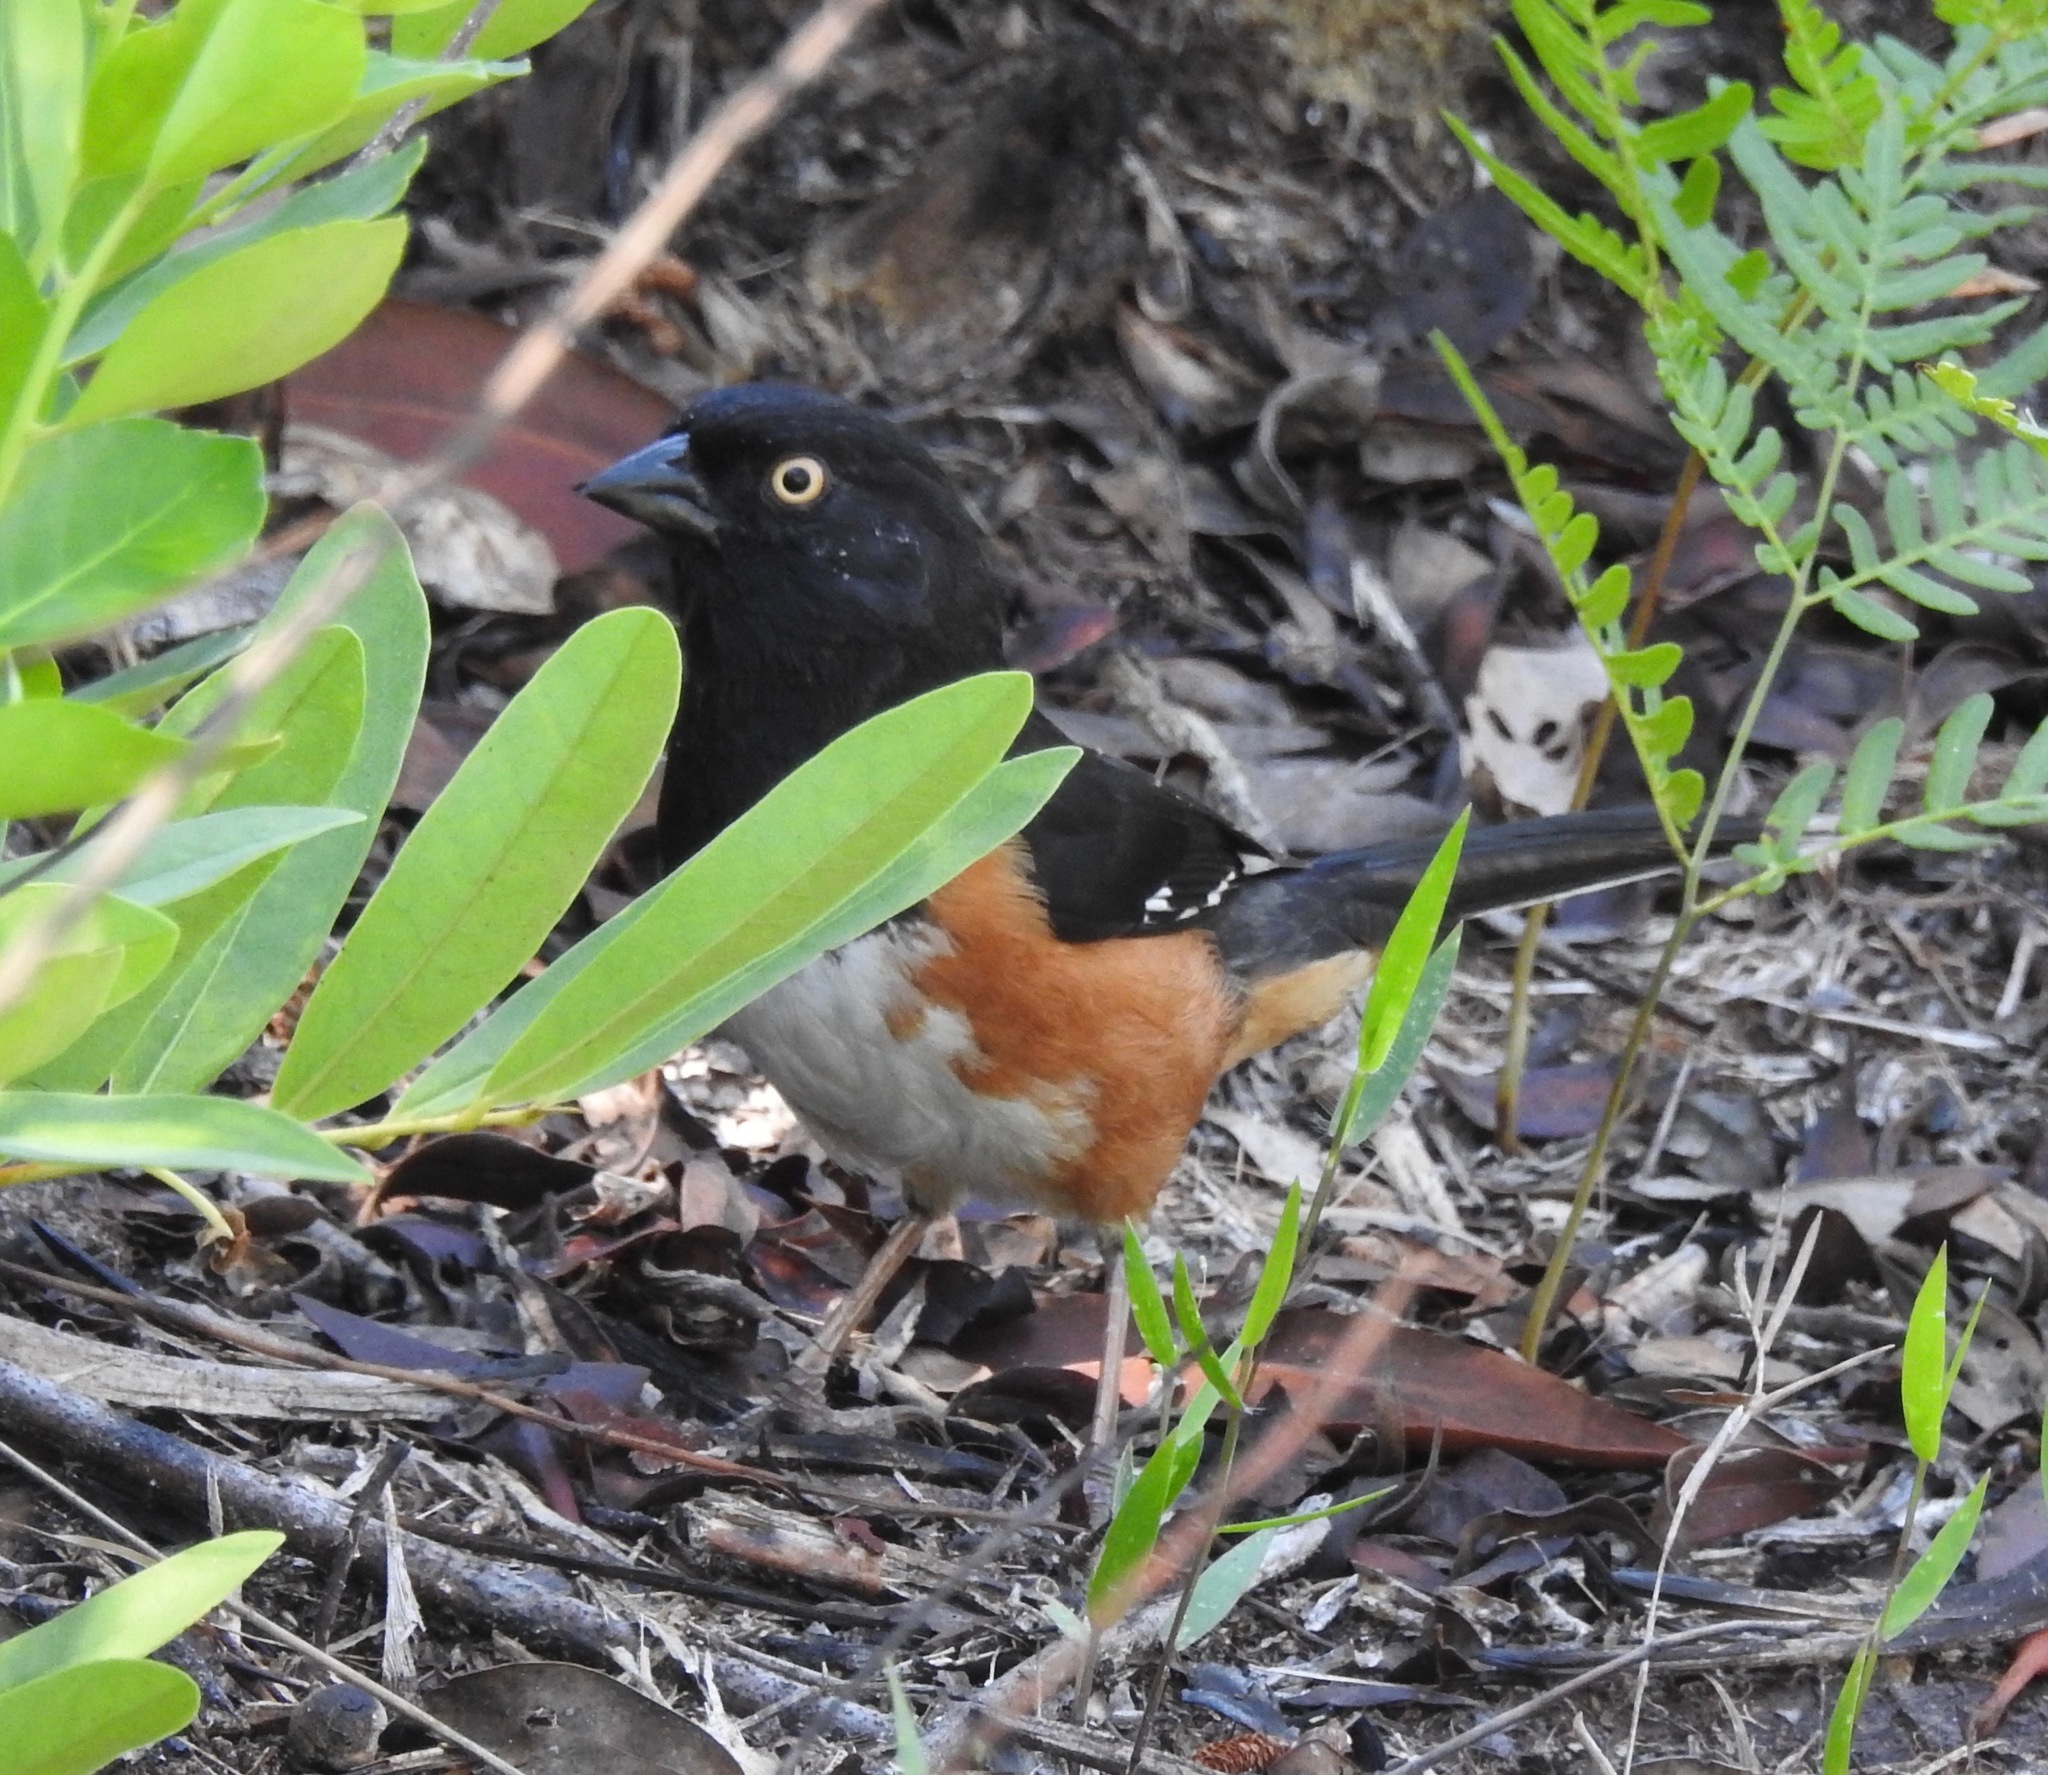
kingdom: Animalia
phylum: Chordata
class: Aves
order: Passeriformes
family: Passerellidae
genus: Pipilo
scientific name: Pipilo erythrophthalmus
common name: Eastern towhee
